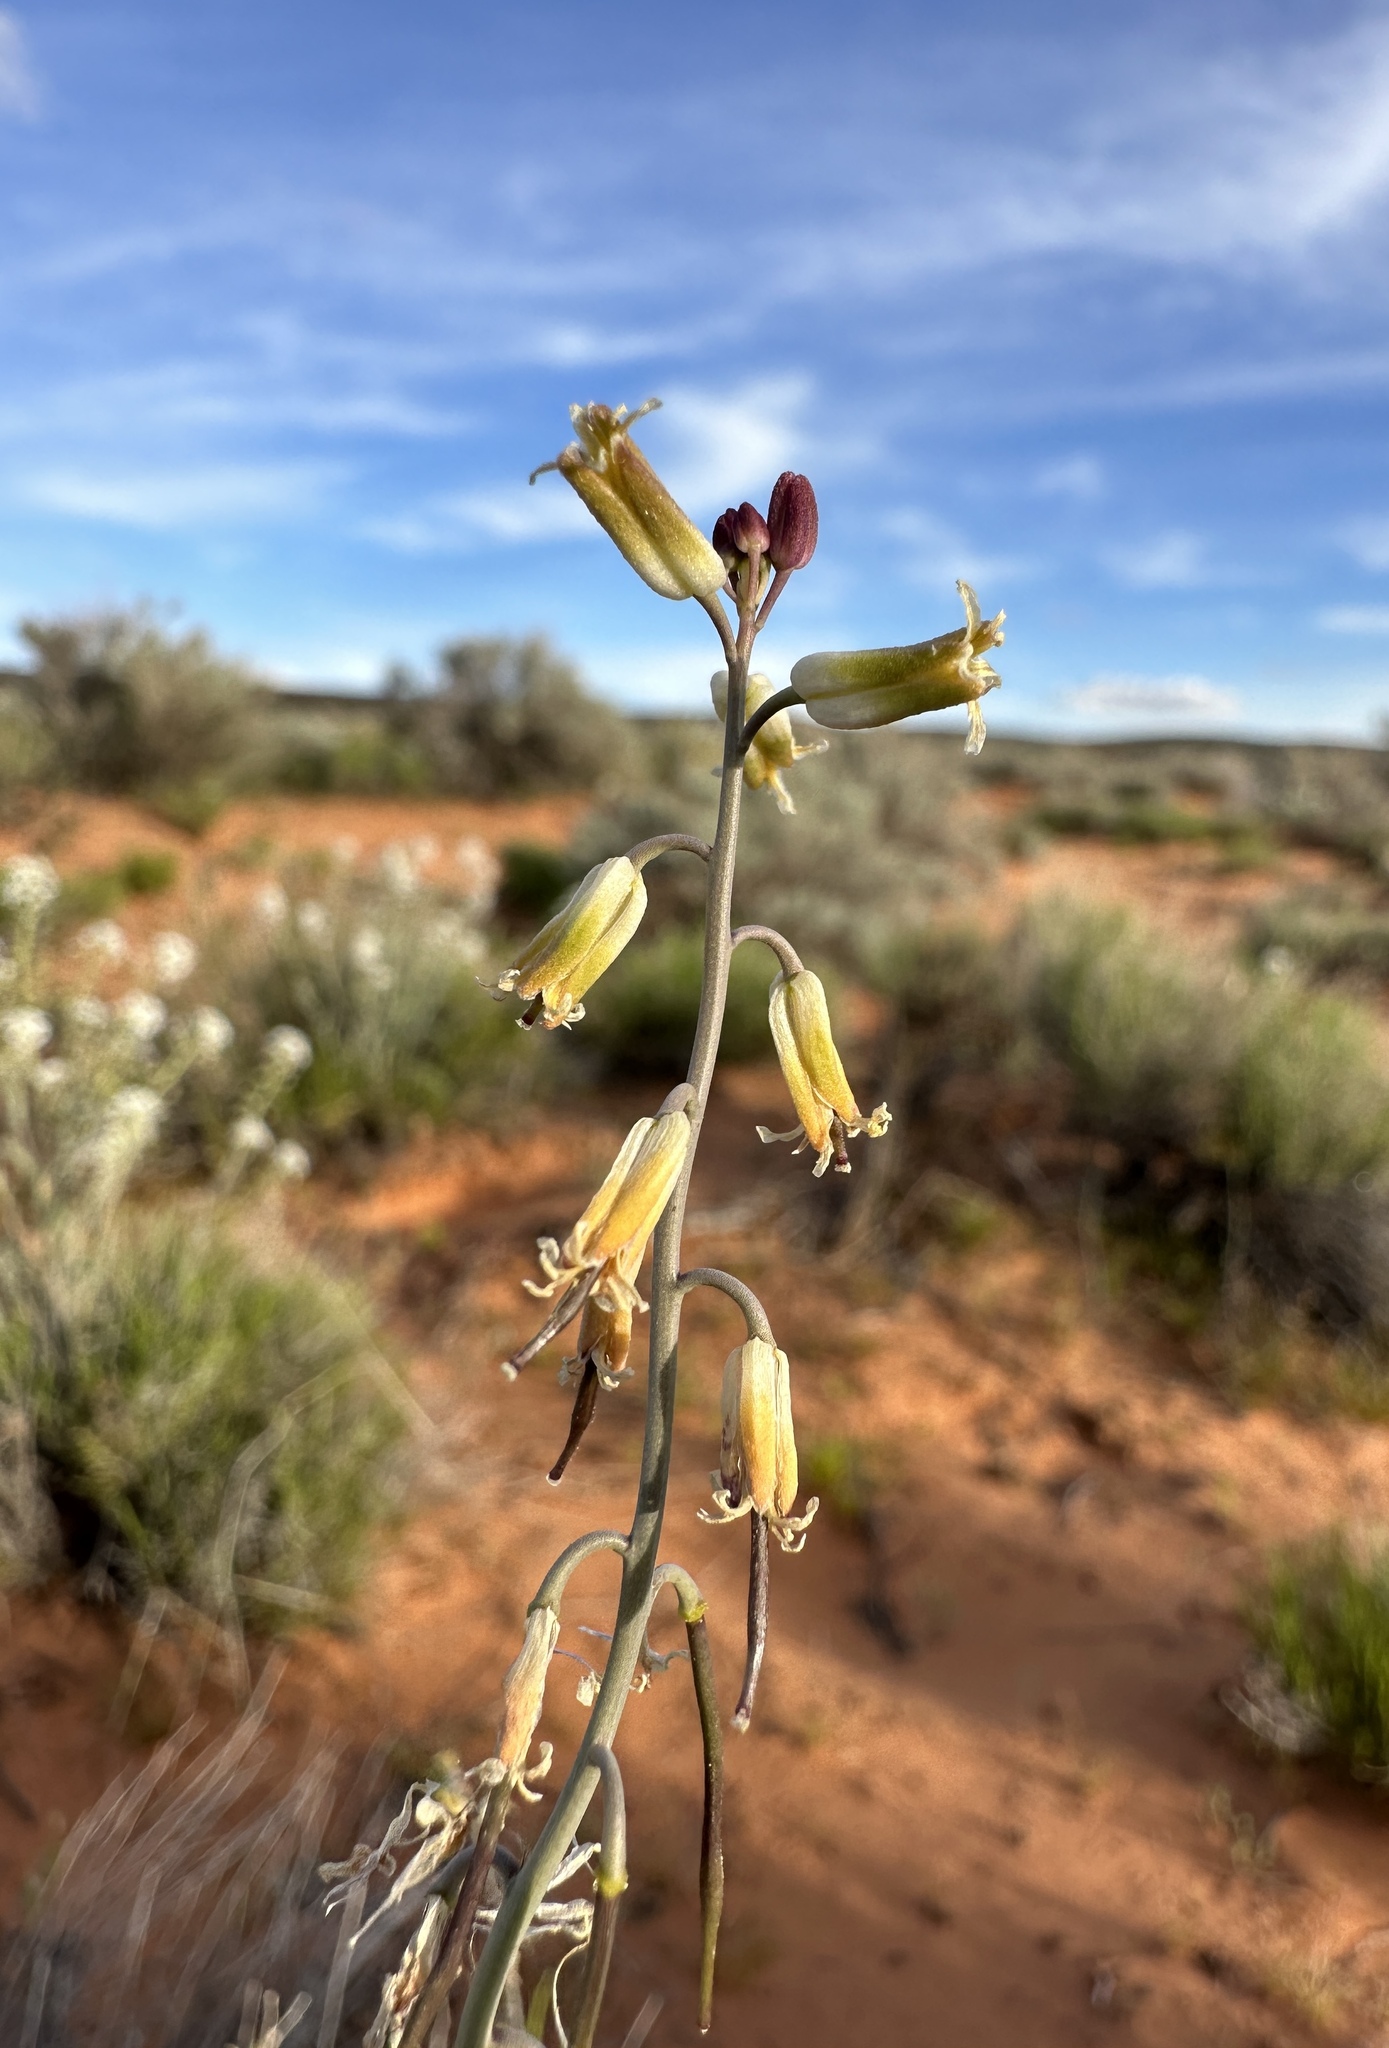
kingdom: Plantae
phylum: Tracheophyta
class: Magnoliopsida
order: Brassicales
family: Brassicaceae
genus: Streptanthus
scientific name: Streptanthus longirostris
